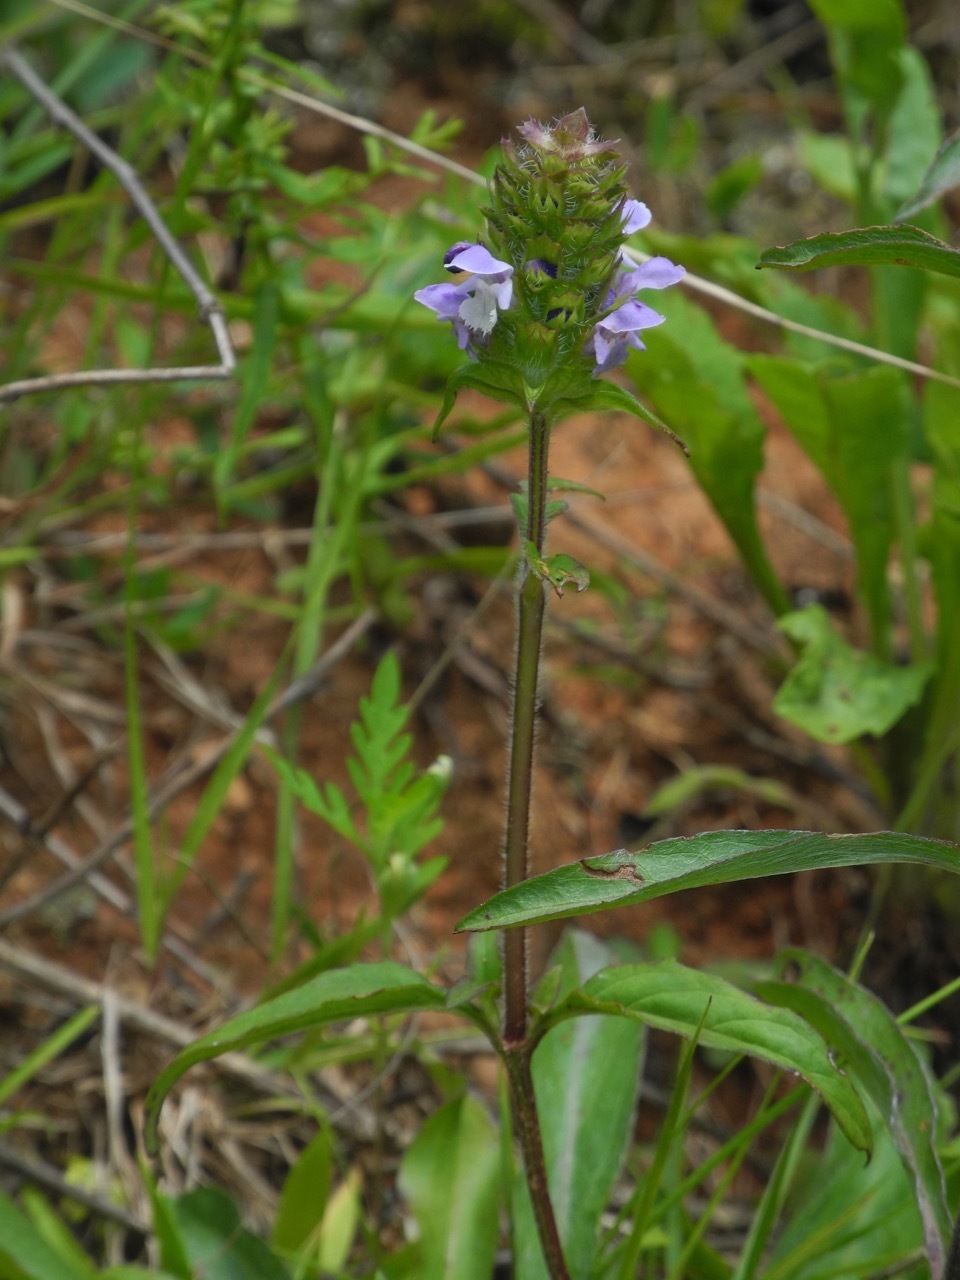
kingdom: Plantae
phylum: Tracheophyta
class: Magnoliopsida
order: Lamiales
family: Lamiaceae
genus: Prunella
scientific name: Prunella vulgaris
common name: Heal-all
